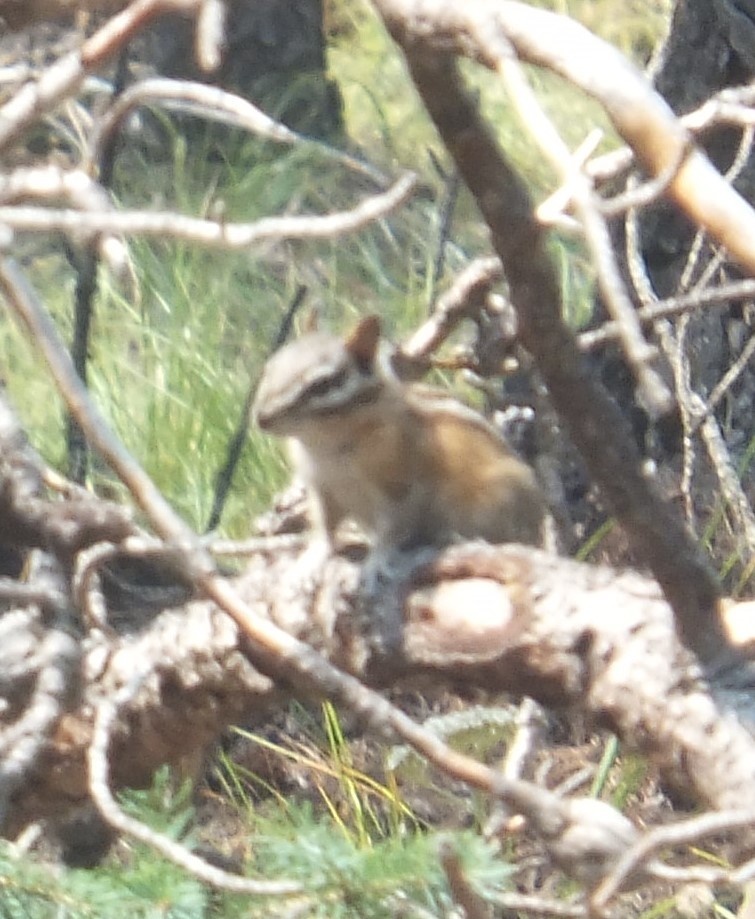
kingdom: Animalia
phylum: Chordata
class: Mammalia
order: Rodentia
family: Sciuridae
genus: Tamias
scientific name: Tamias amoenus
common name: Yellow-pine chipmunk
